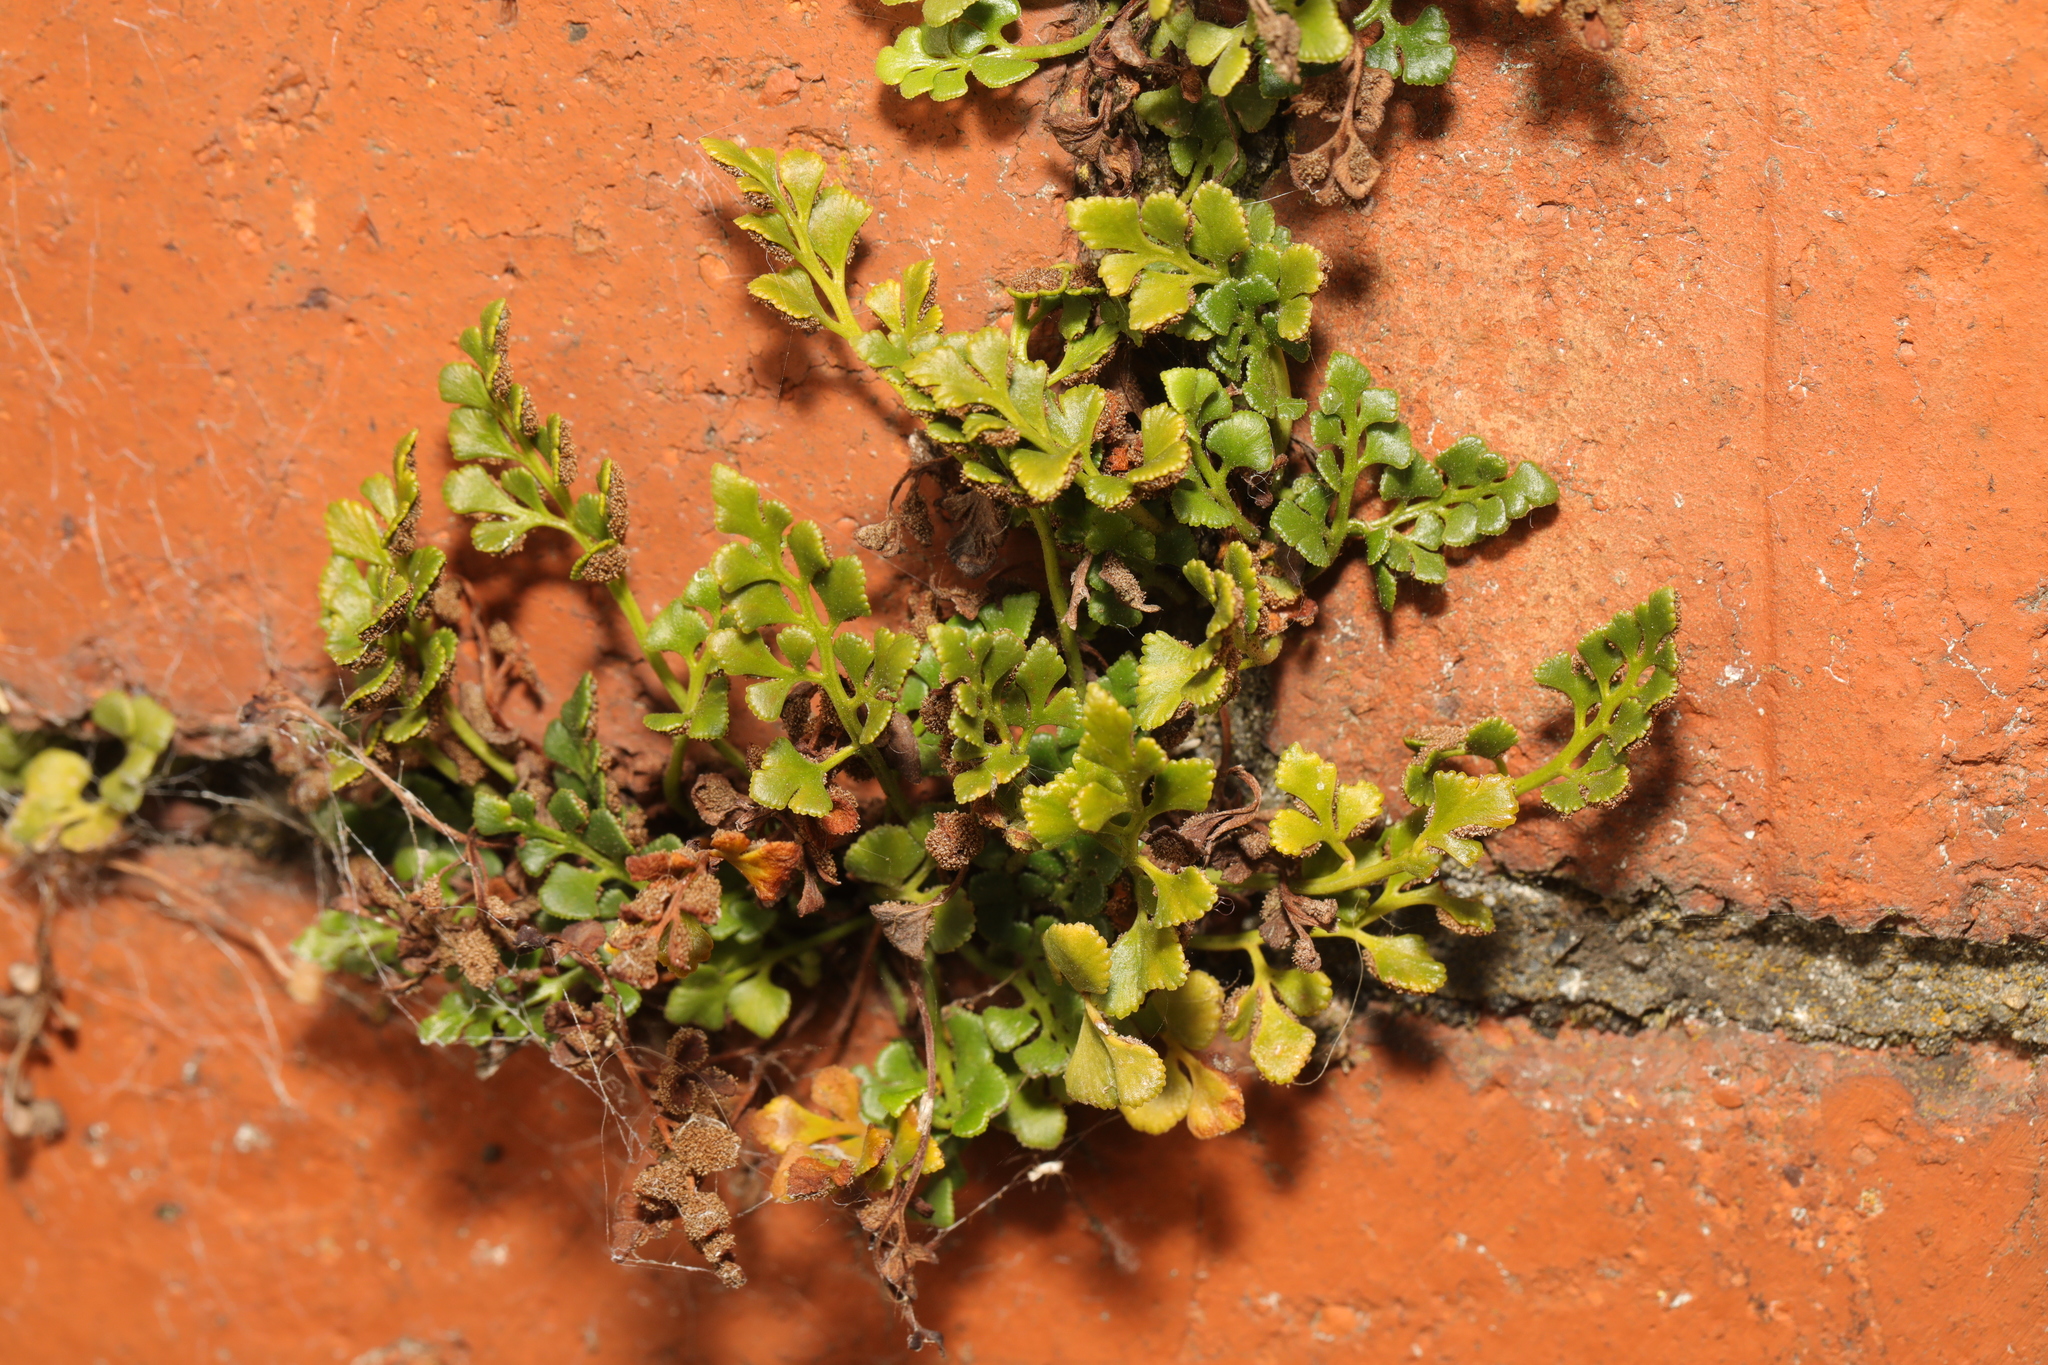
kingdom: Plantae
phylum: Tracheophyta
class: Polypodiopsida
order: Polypodiales
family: Aspleniaceae
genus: Asplenium
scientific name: Asplenium ruta-muraria
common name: Wall-rue
